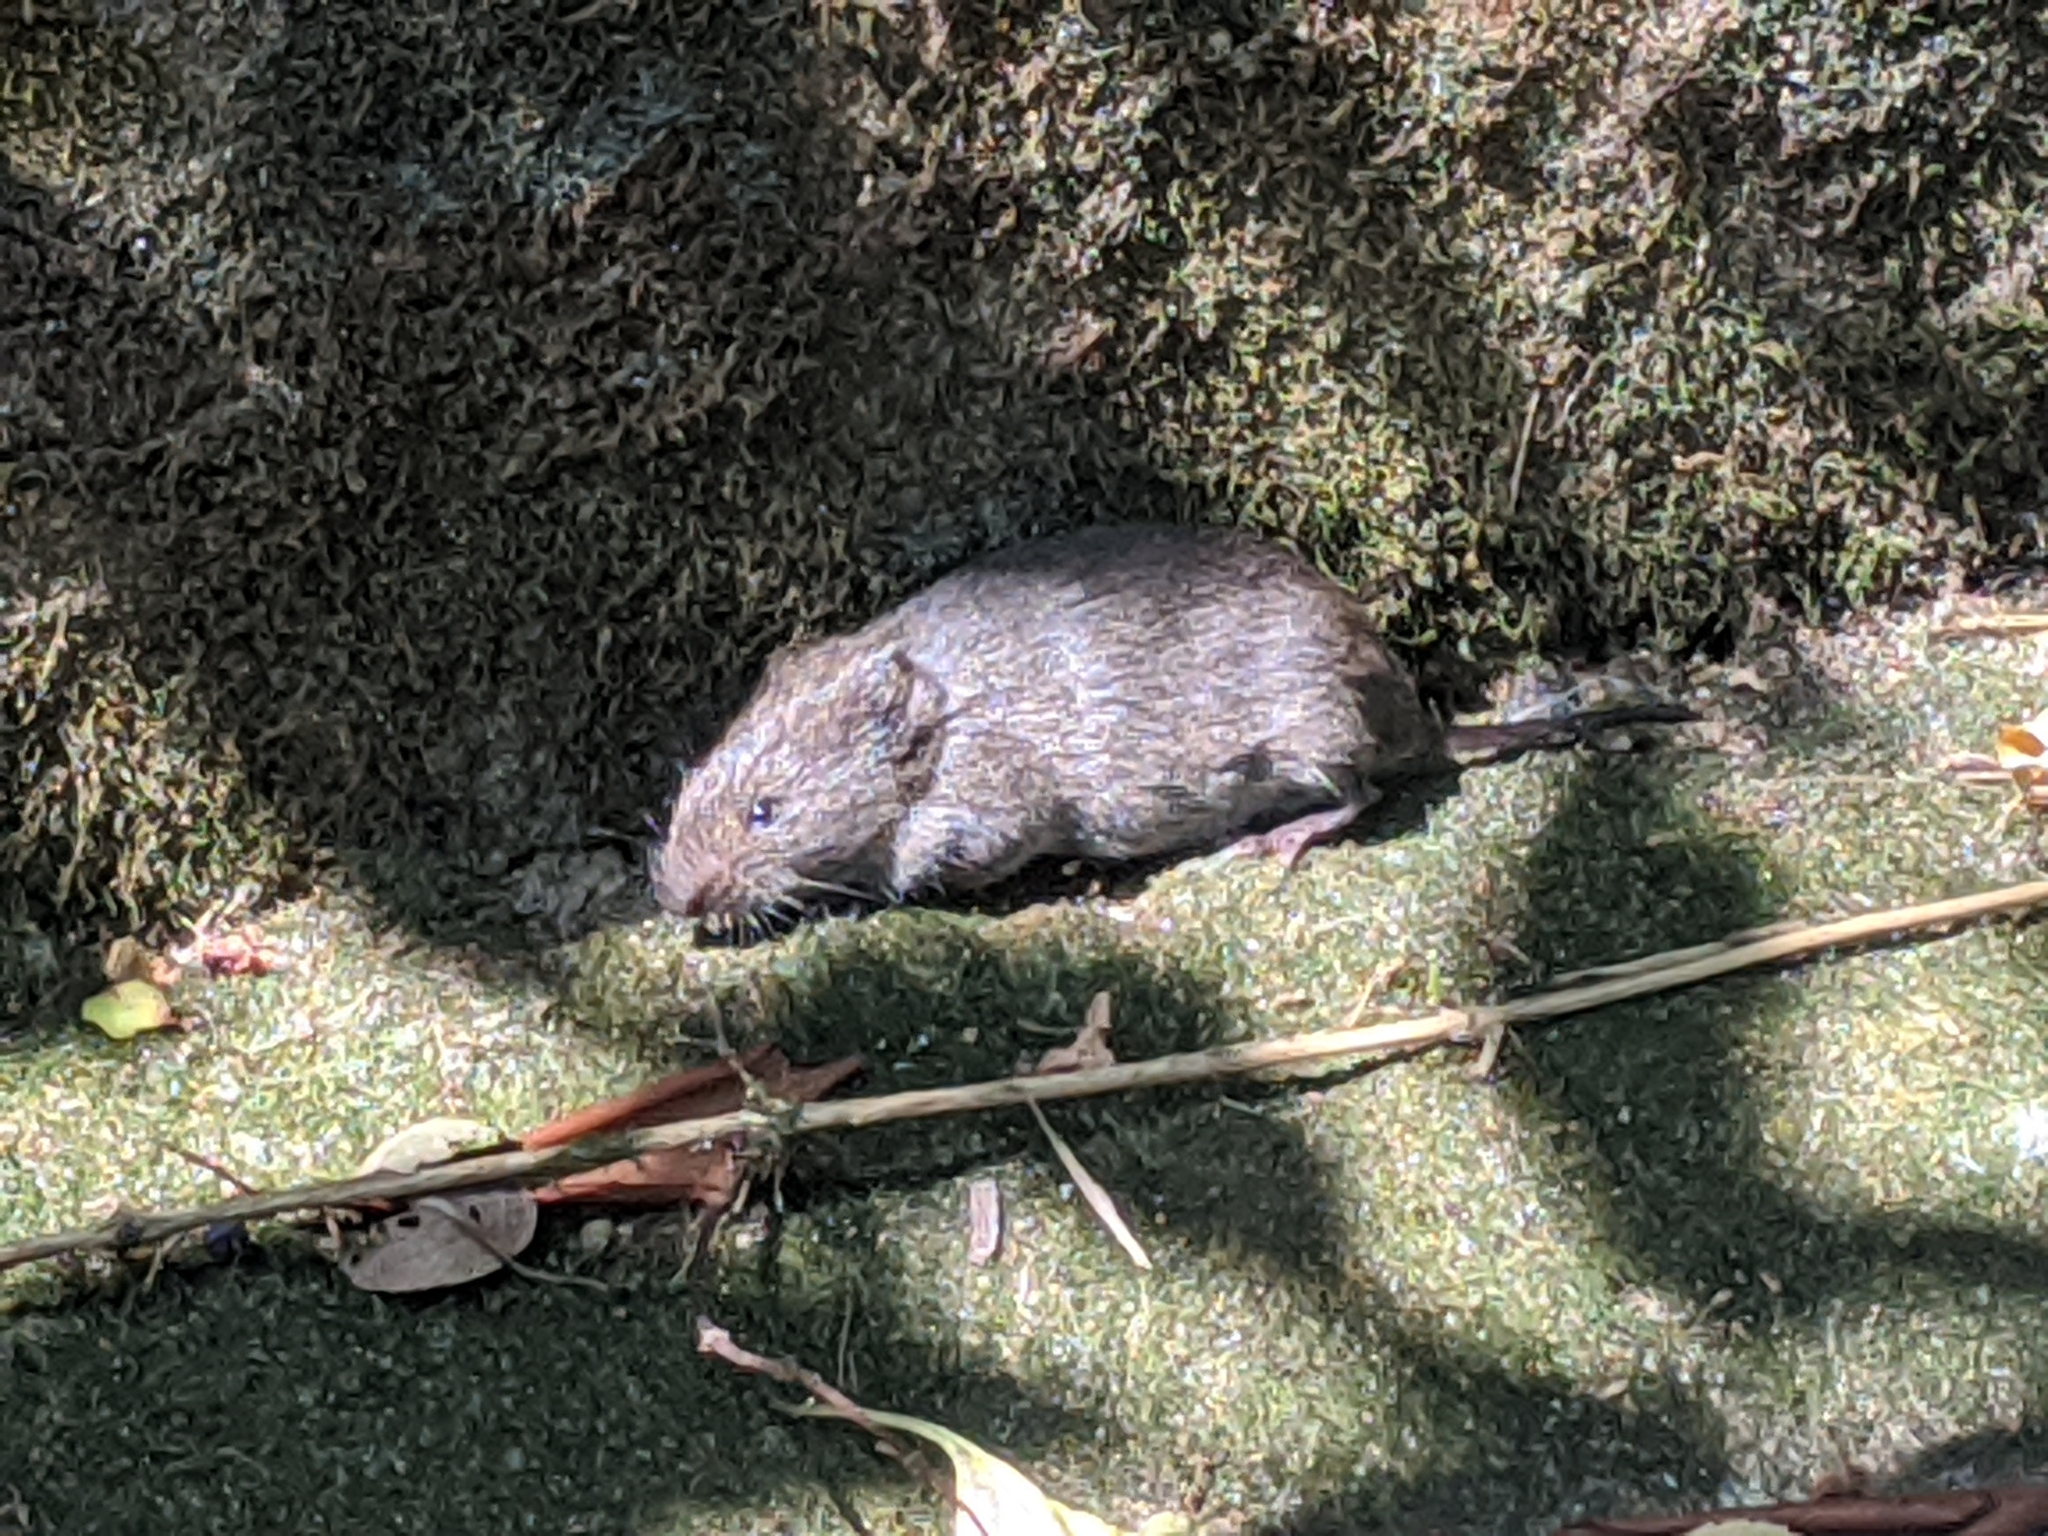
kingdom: Animalia
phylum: Chordata
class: Mammalia
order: Rodentia
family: Cricetidae
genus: Microtus
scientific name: Microtus pennsylvanicus
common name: Meadow vole
